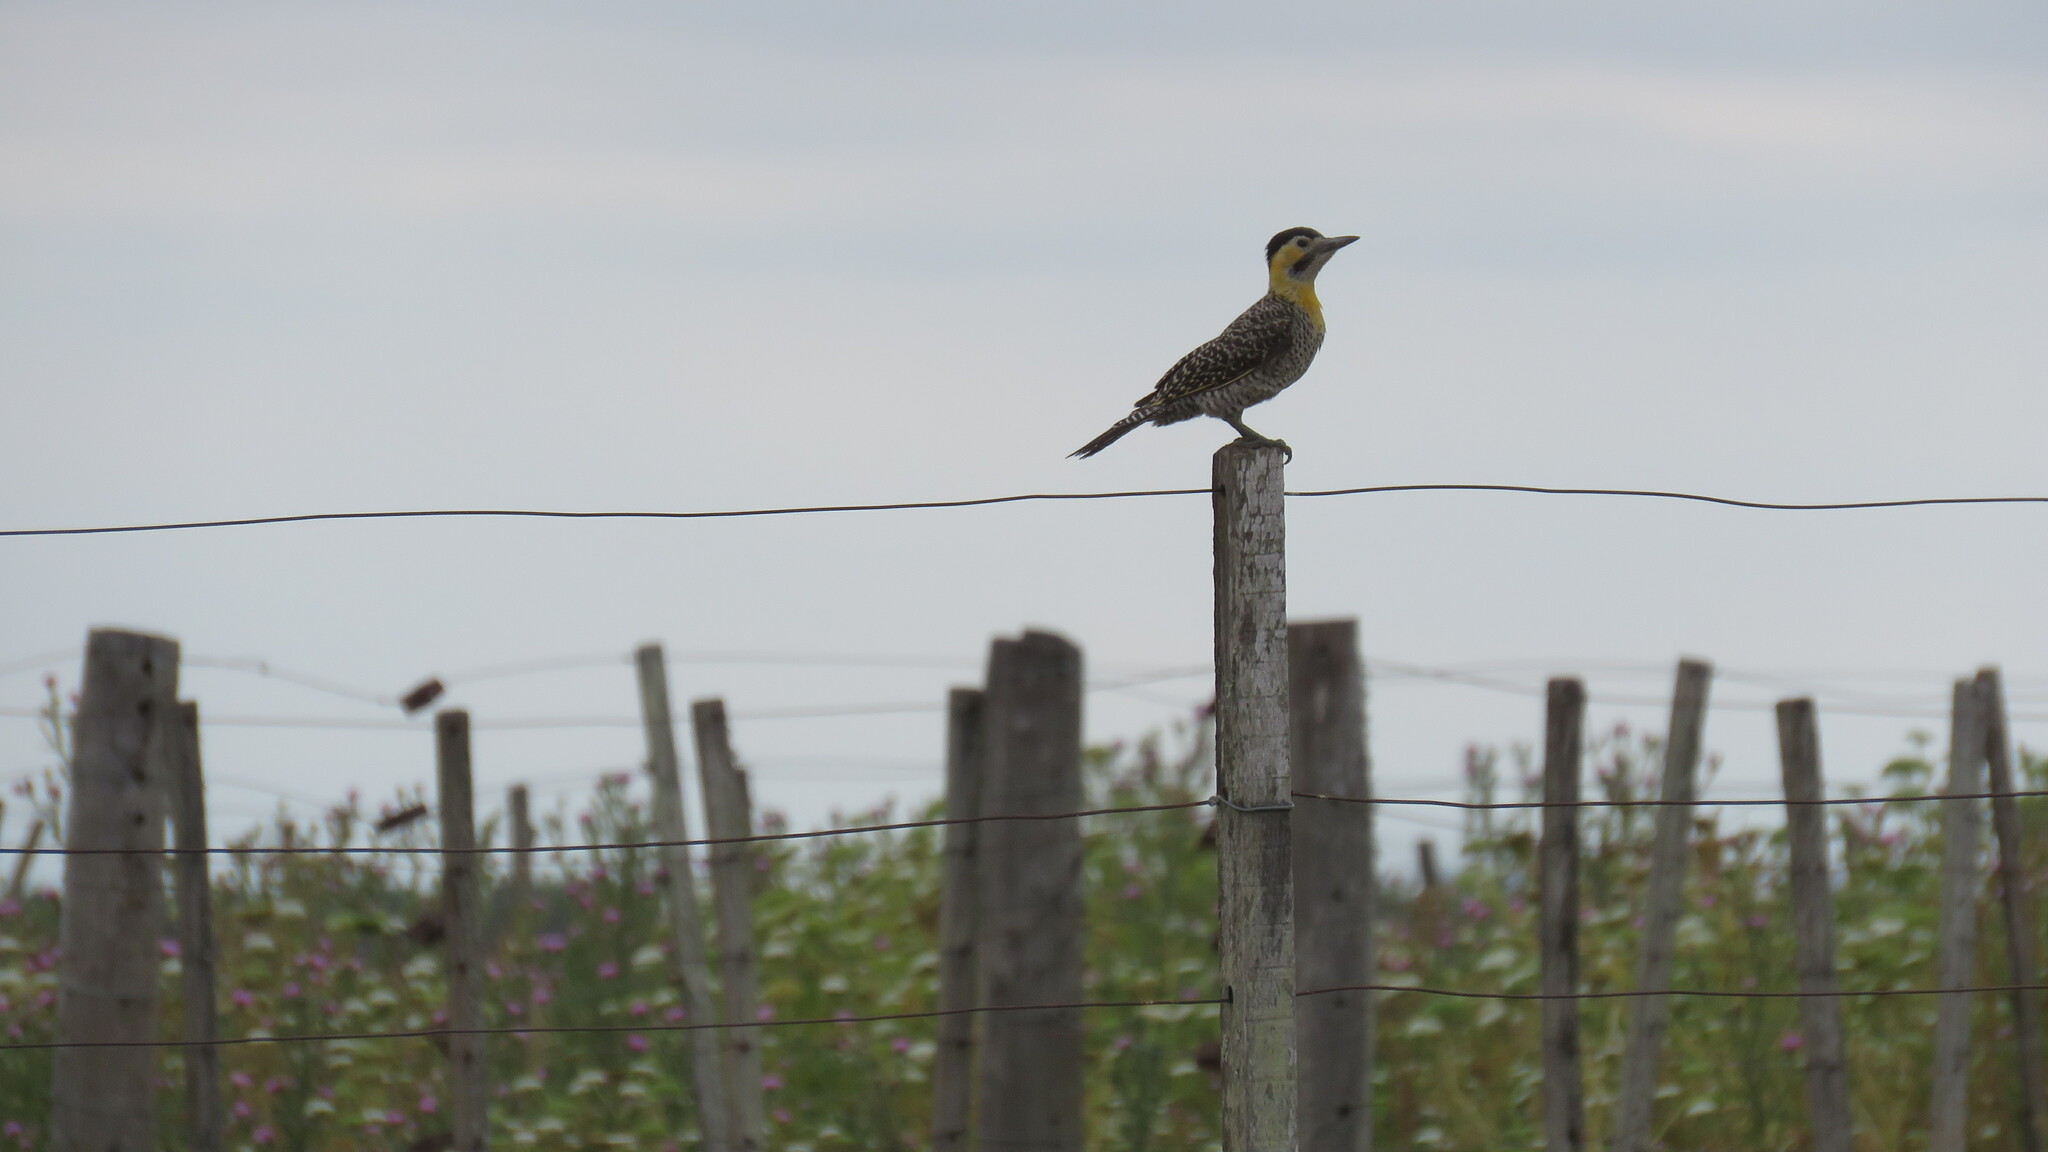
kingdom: Animalia
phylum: Chordata
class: Aves
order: Piciformes
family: Picidae
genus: Colaptes
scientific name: Colaptes campestris
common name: Campo flicker
